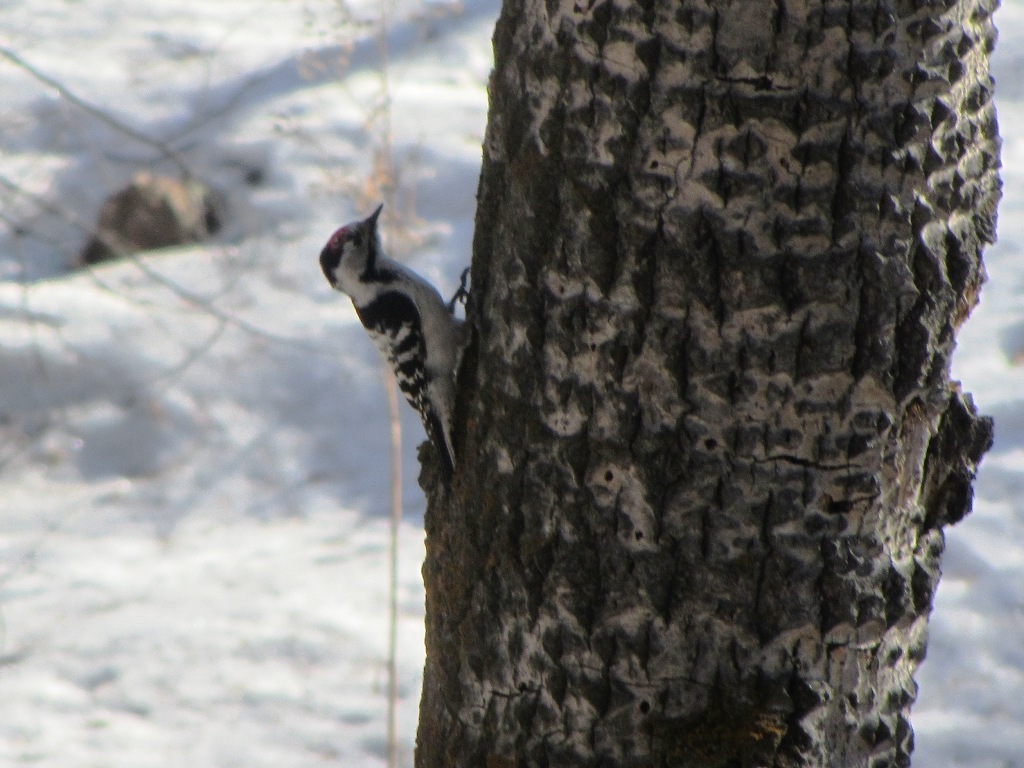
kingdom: Animalia
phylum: Chordata
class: Aves
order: Piciformes
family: Picidae
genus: Dryobates
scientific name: Dryobates minor
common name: Lesser spotted woodpecker
